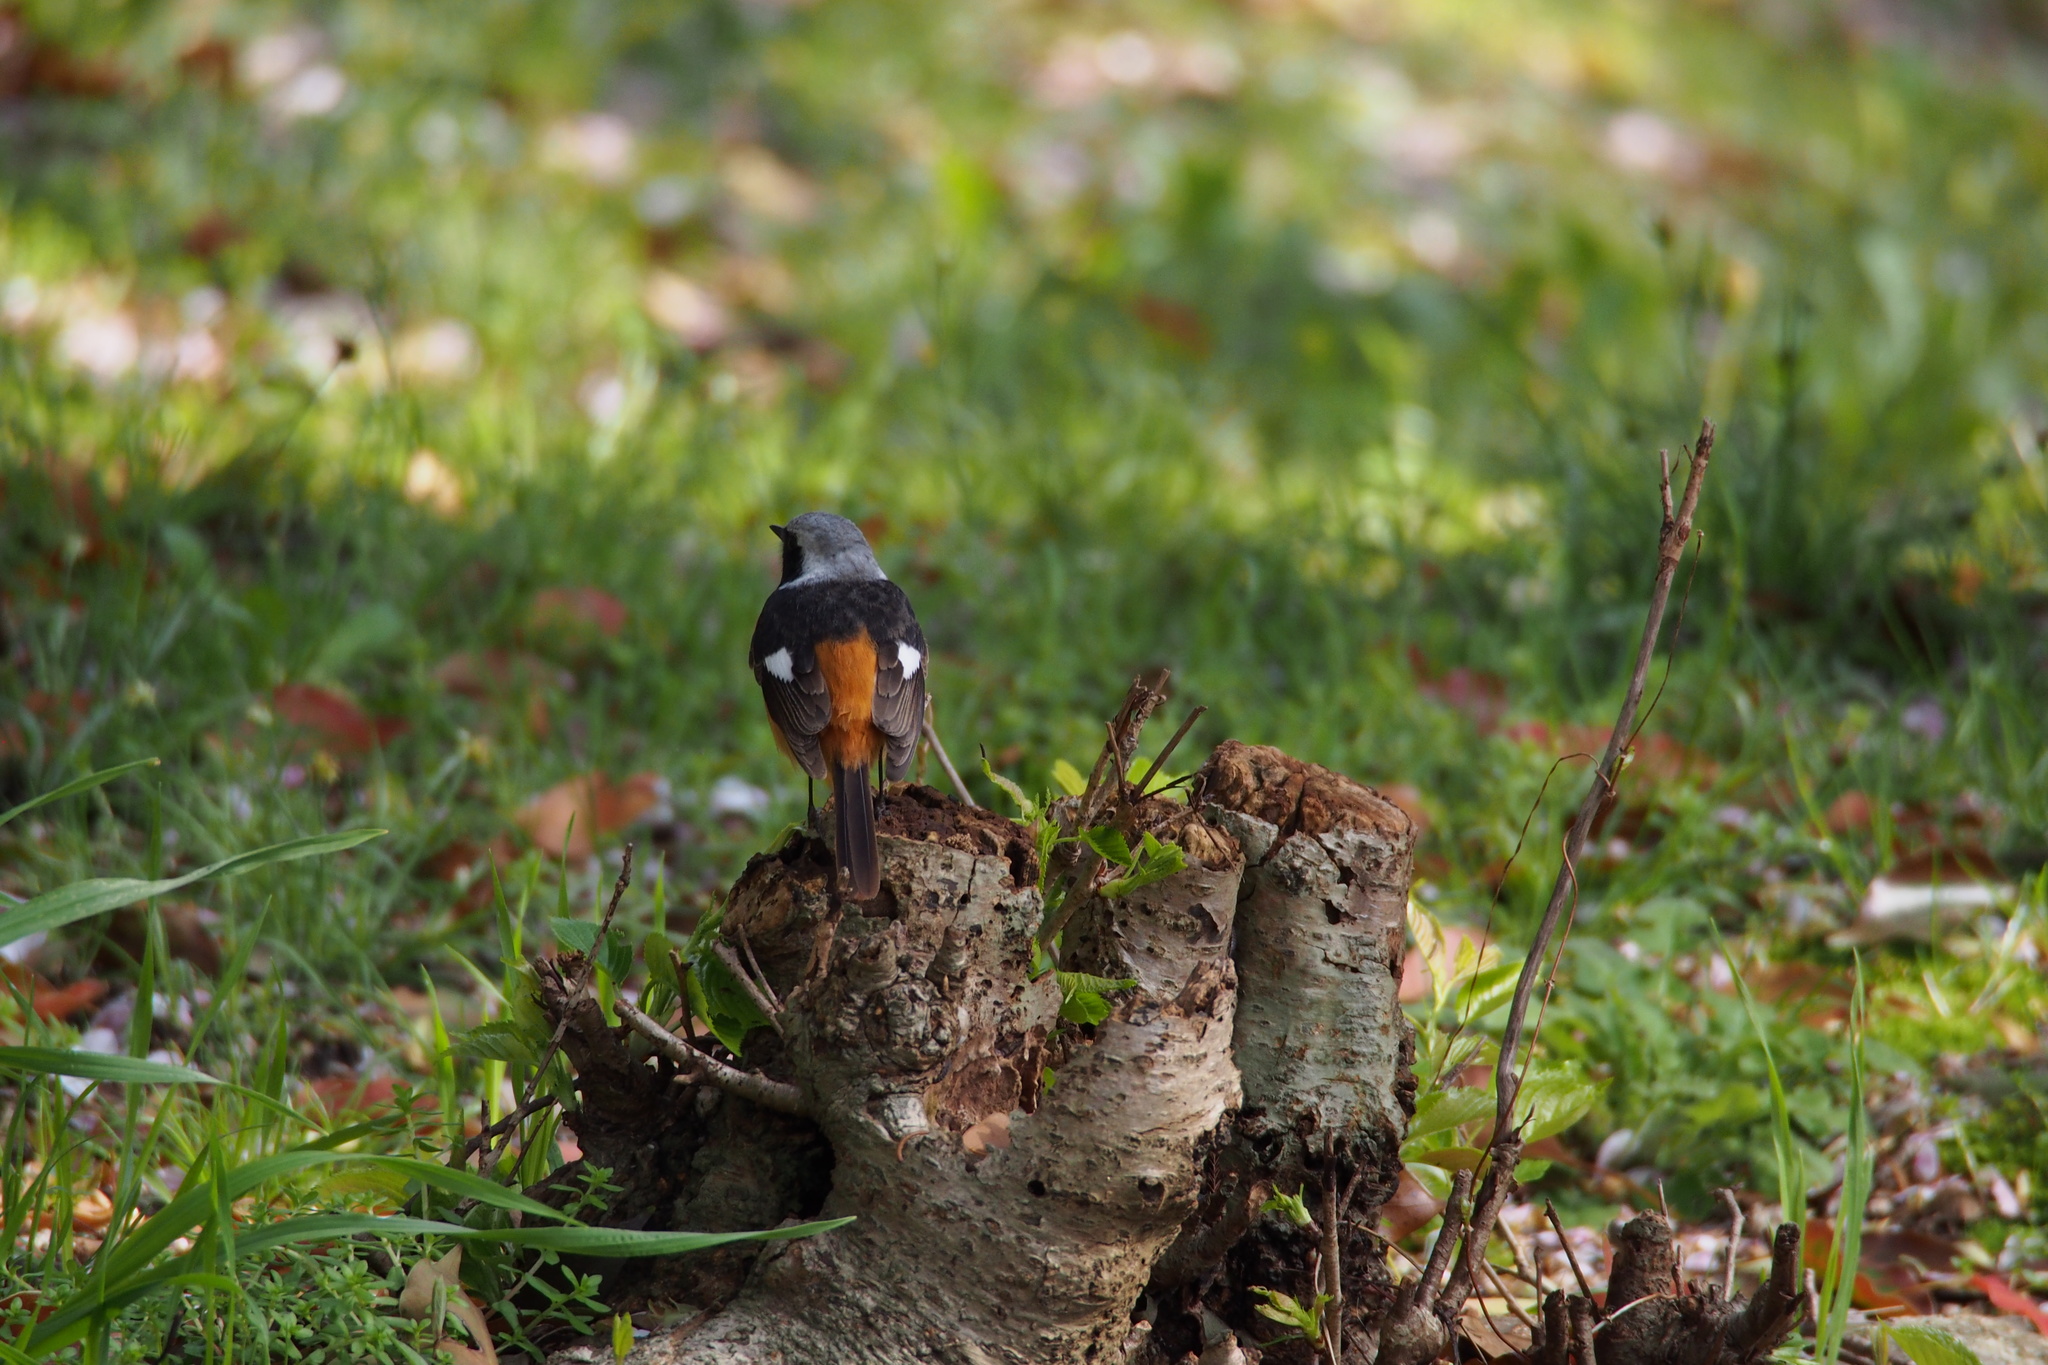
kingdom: Animalia
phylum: Chordata
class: Aves
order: Passeriformes
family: Muscicapidae
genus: Phoenicurus
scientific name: Phoenicurus auroreus
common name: Daurian redstart
